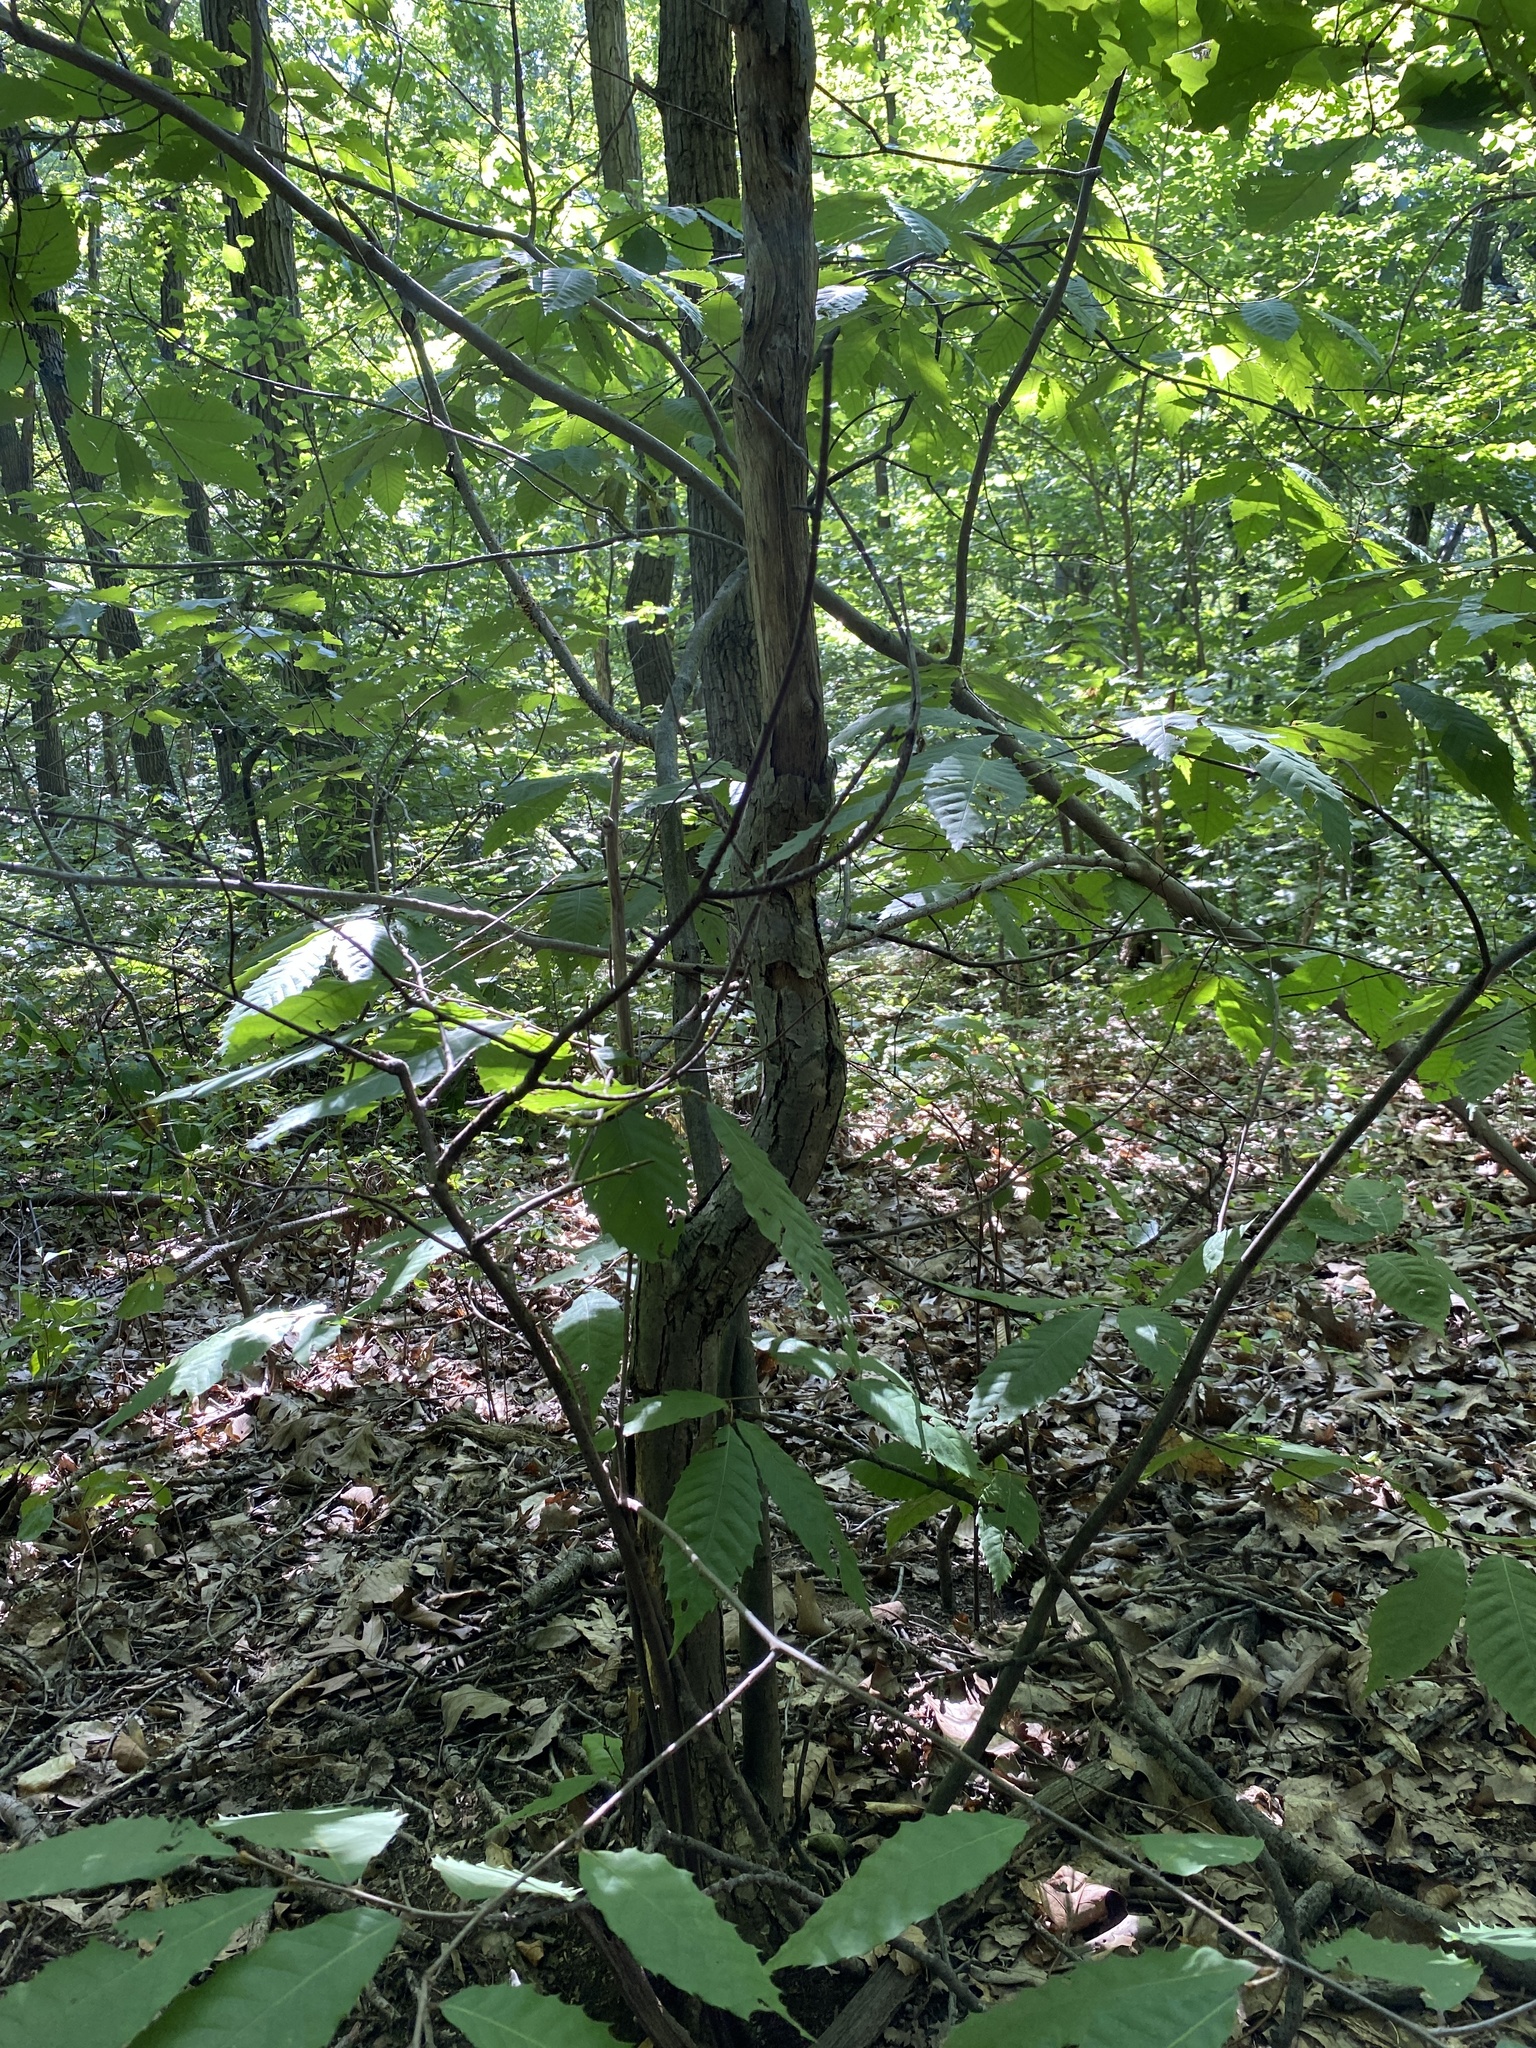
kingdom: Plantae
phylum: Tracheophyta
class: Magnoliopsida
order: Fagales
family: Fagaceae
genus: Castanea
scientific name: Castanea dentata
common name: American chestnut
